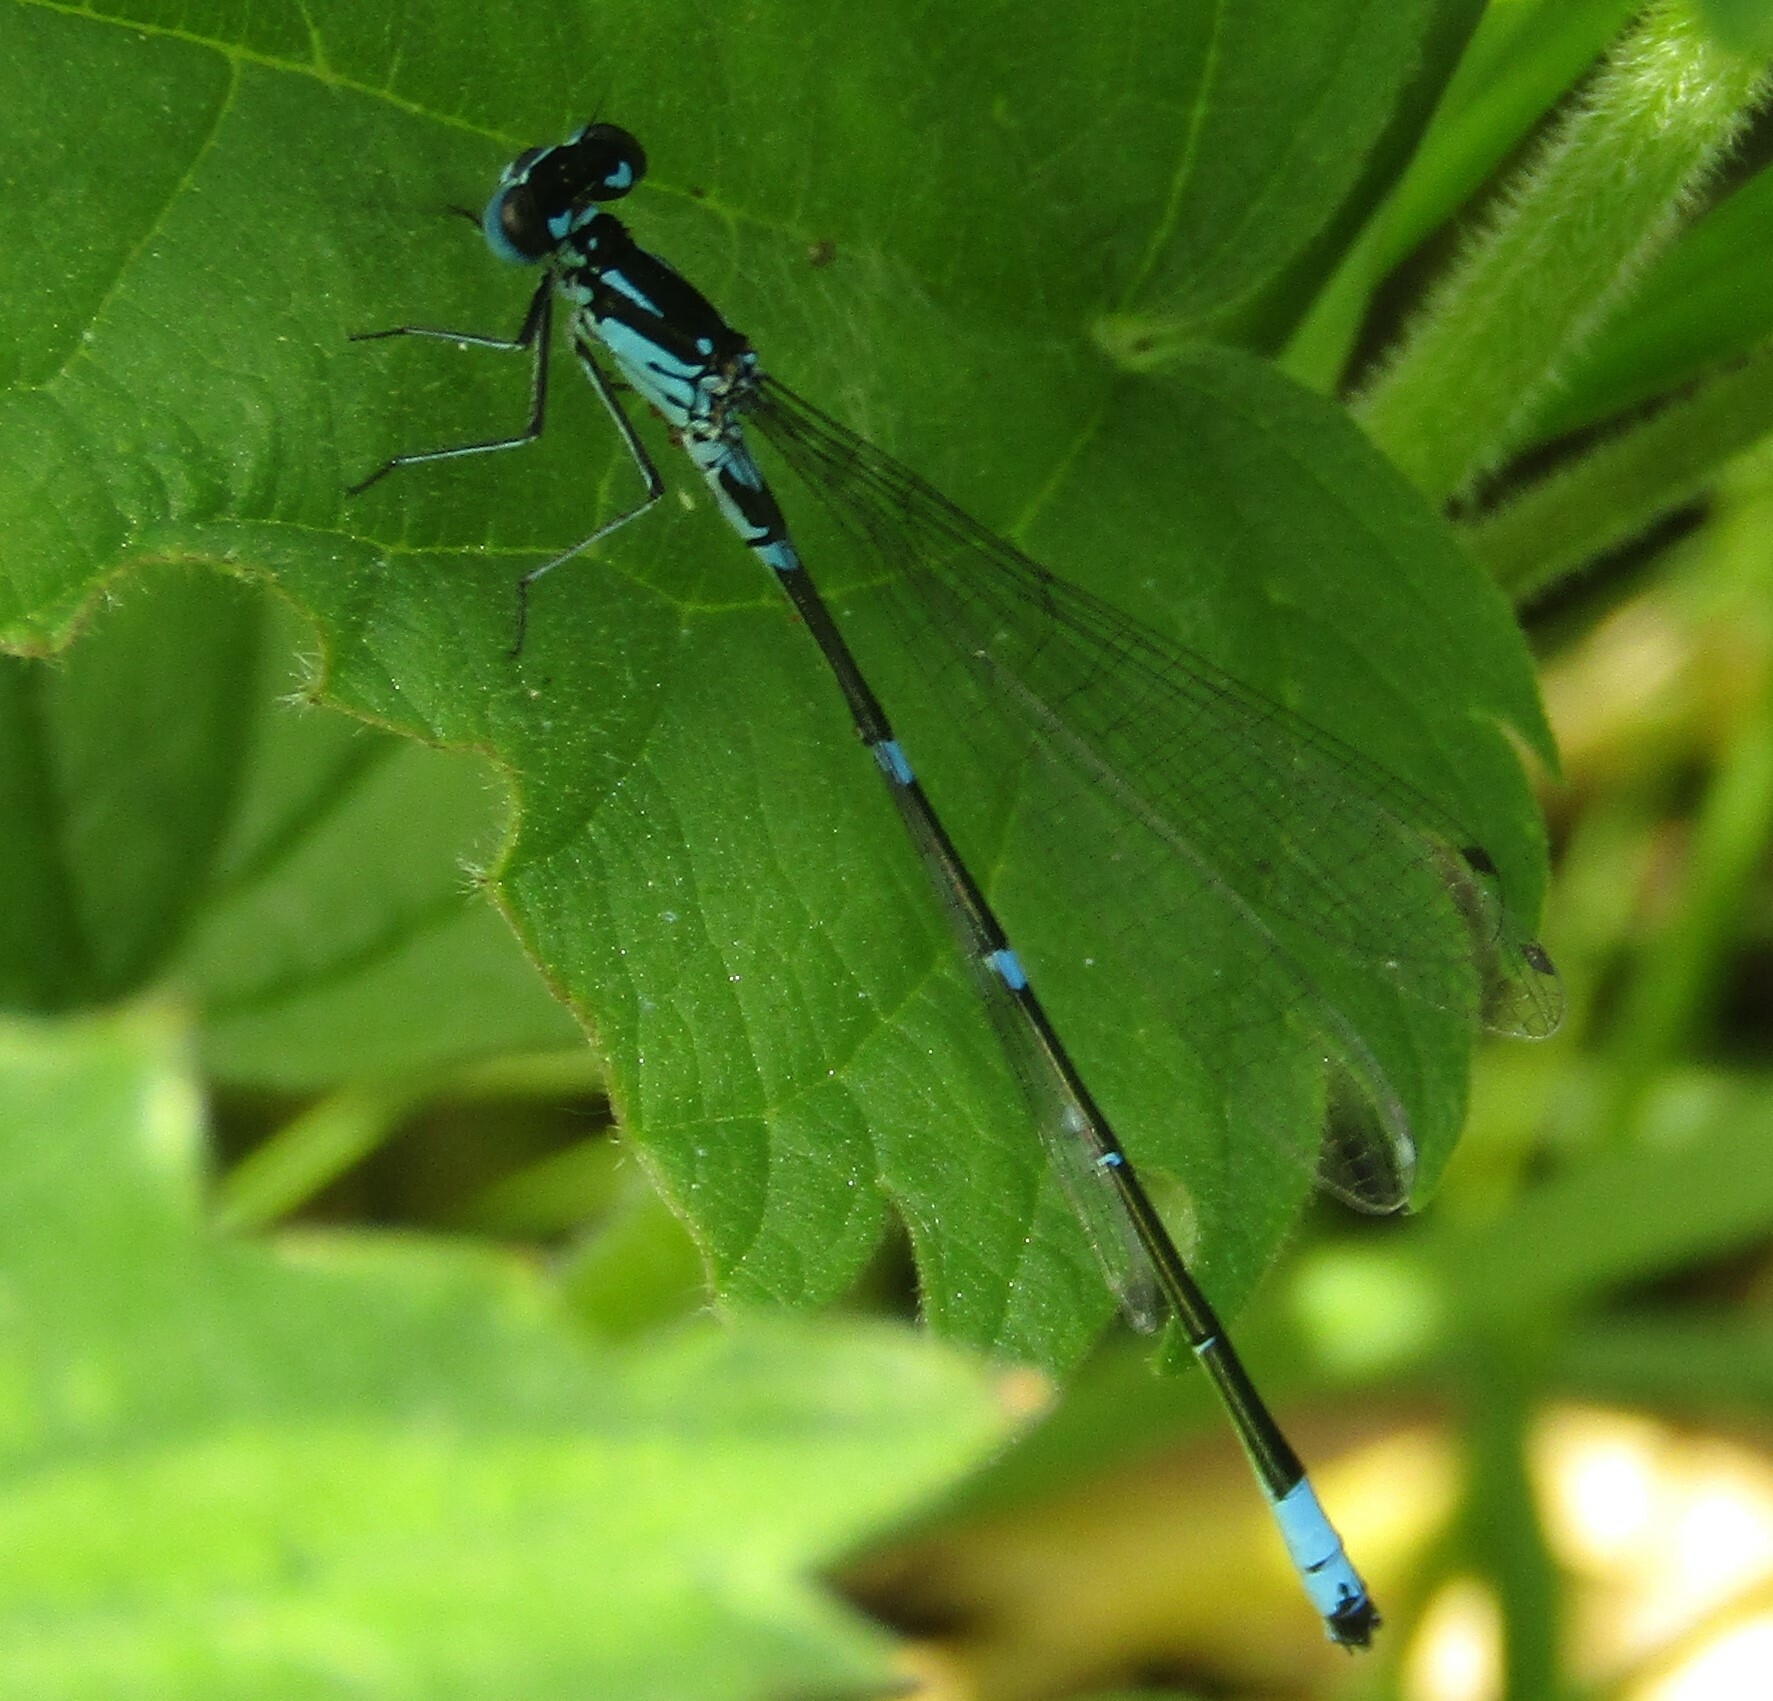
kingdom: Animalia
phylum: Arthropoda
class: Insecta
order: Odonata
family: Coenagrionidae
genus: Coenagrion
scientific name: Coenagrion pulchellum
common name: Variable bluet
